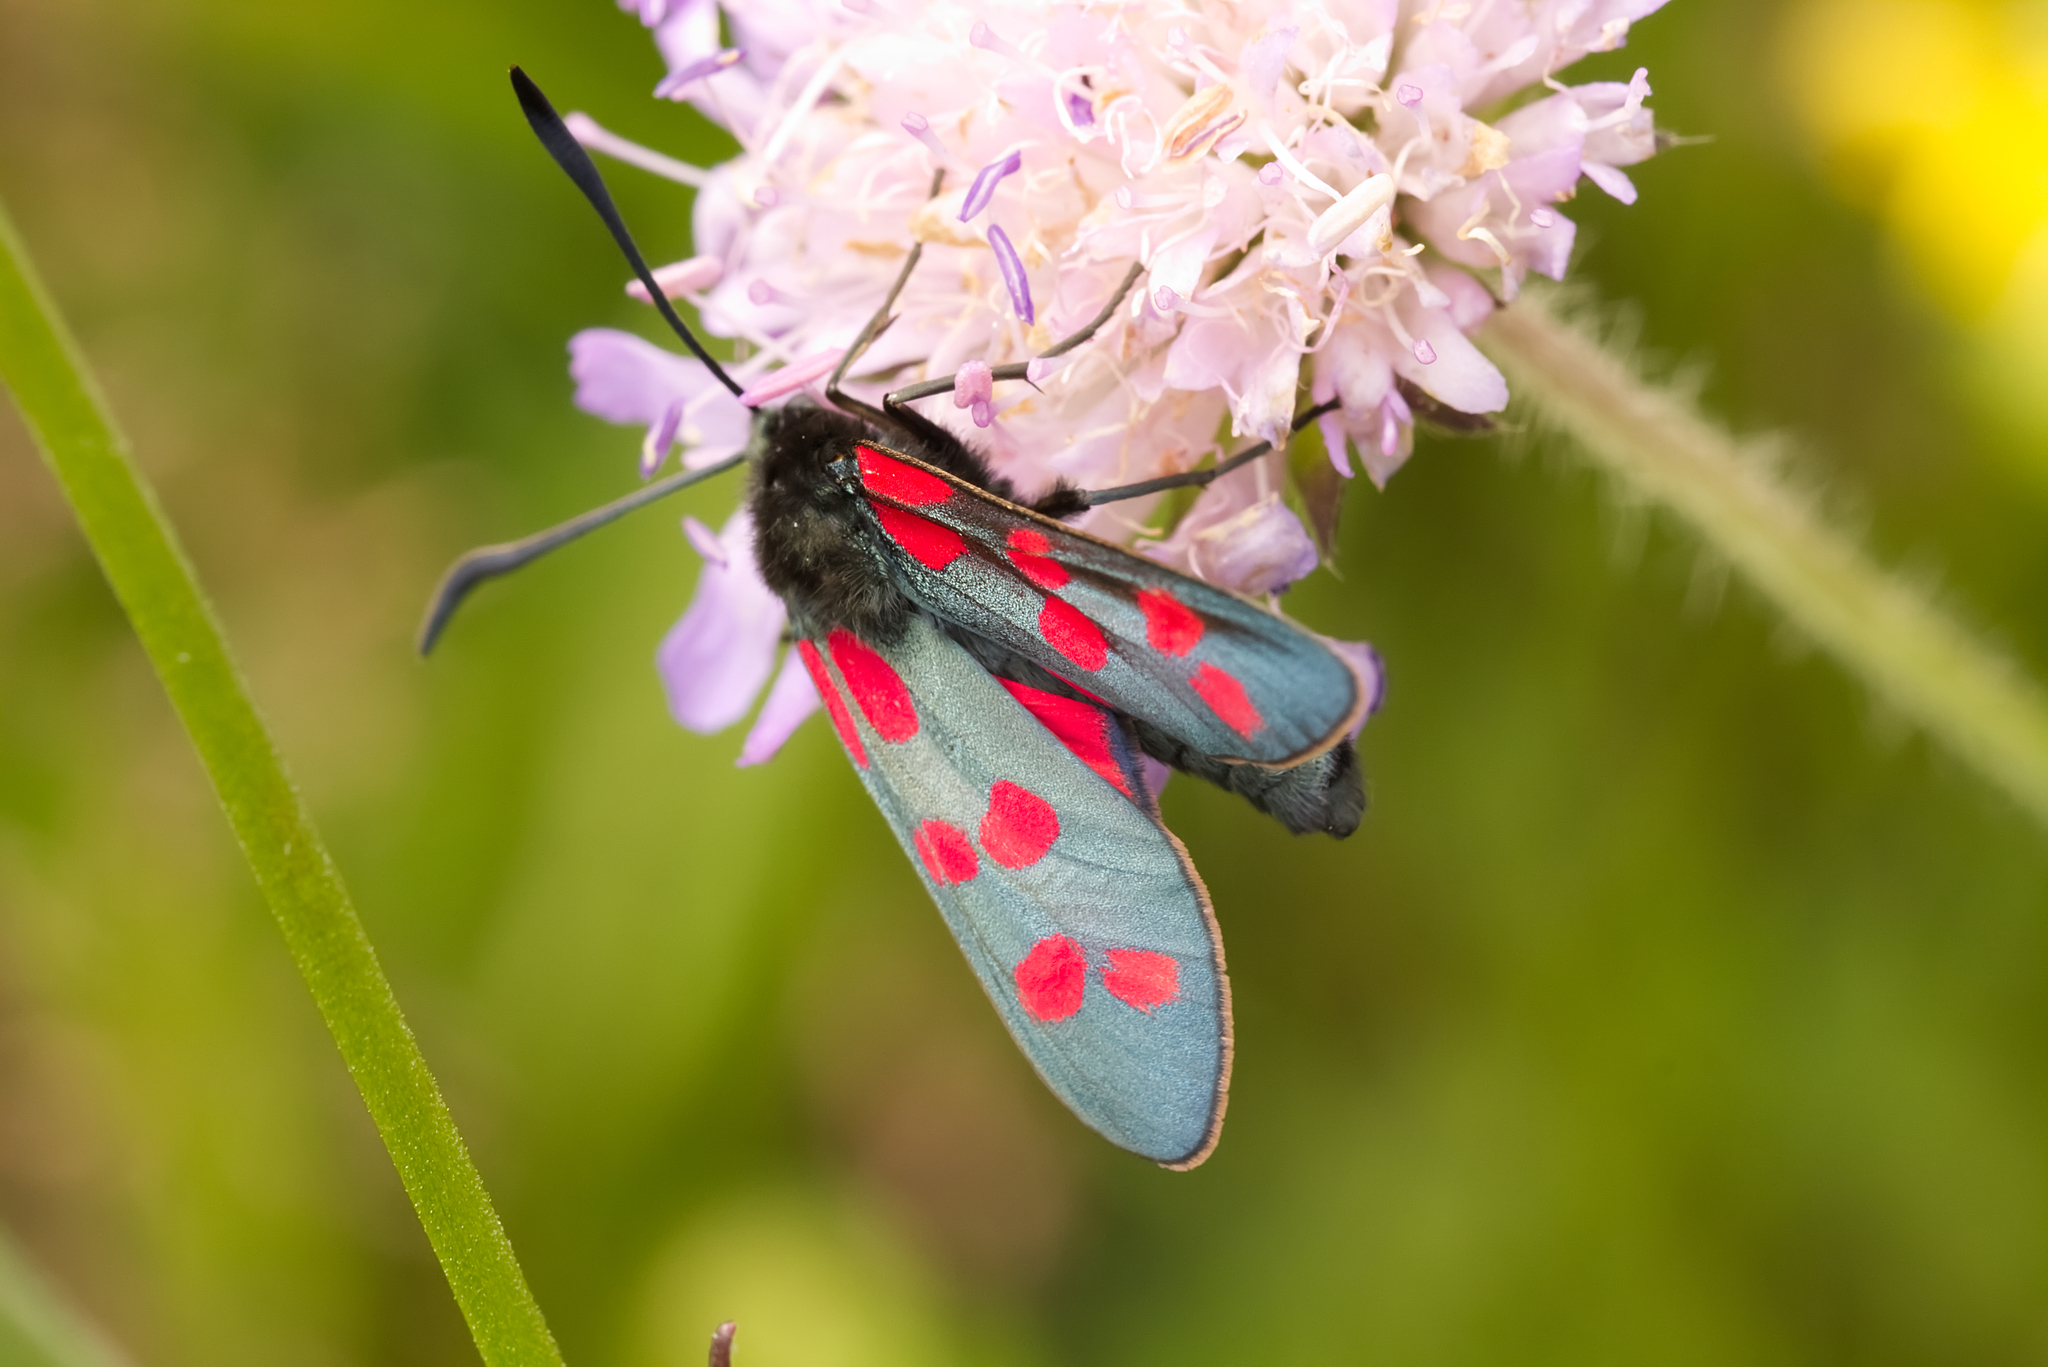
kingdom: Animalia
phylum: Arthropoda
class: Insecta
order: Lepidoptera
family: Zygaenidae
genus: Zygaena
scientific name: Zygaena filipendulae
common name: Six-spot burnet
